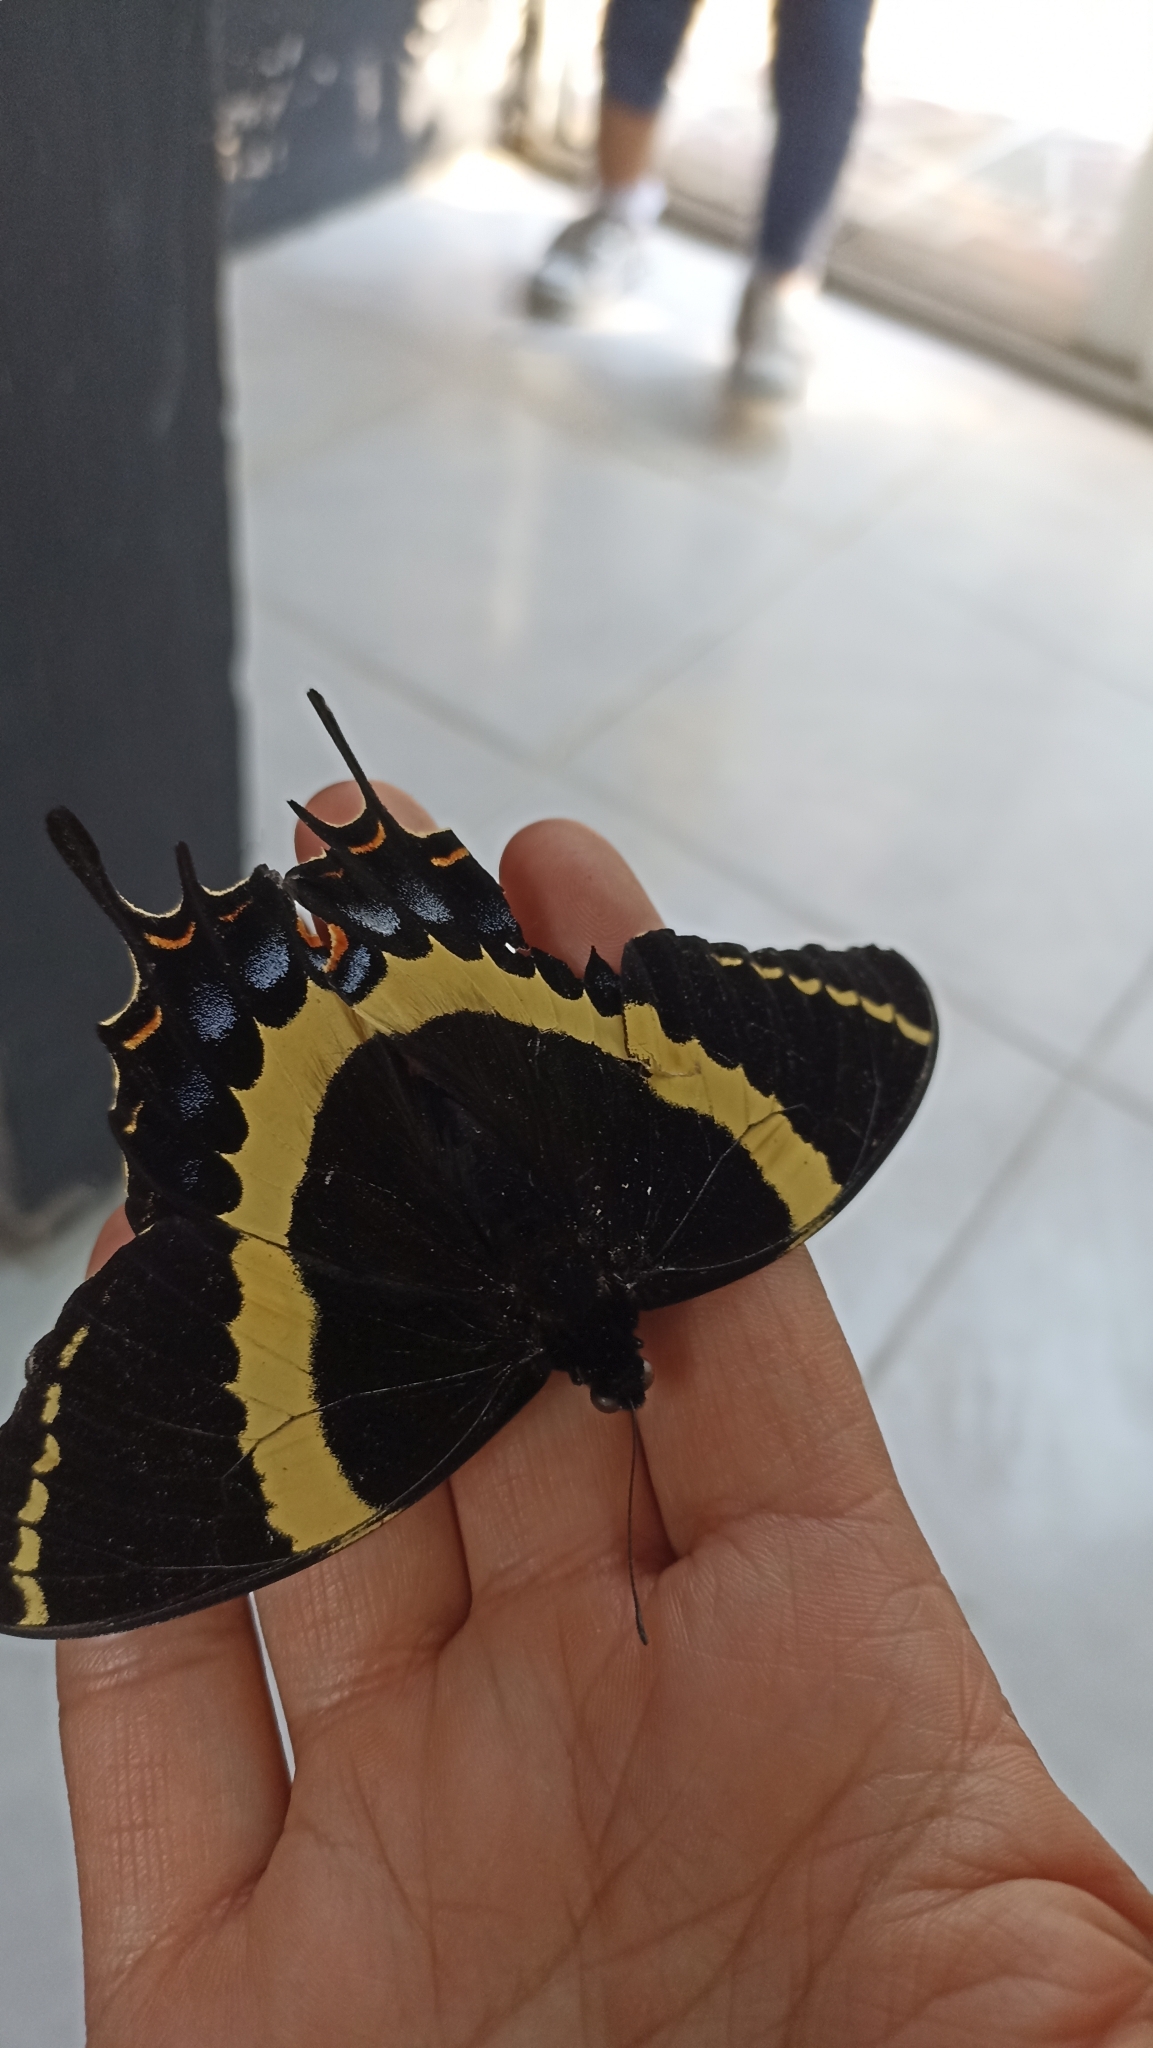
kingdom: Animalia
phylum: Arthropoda
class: Insecta
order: Lepidoptera
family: Papilionidae
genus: Papilio
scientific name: Papilio garamas
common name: Magnificent swallowtail
